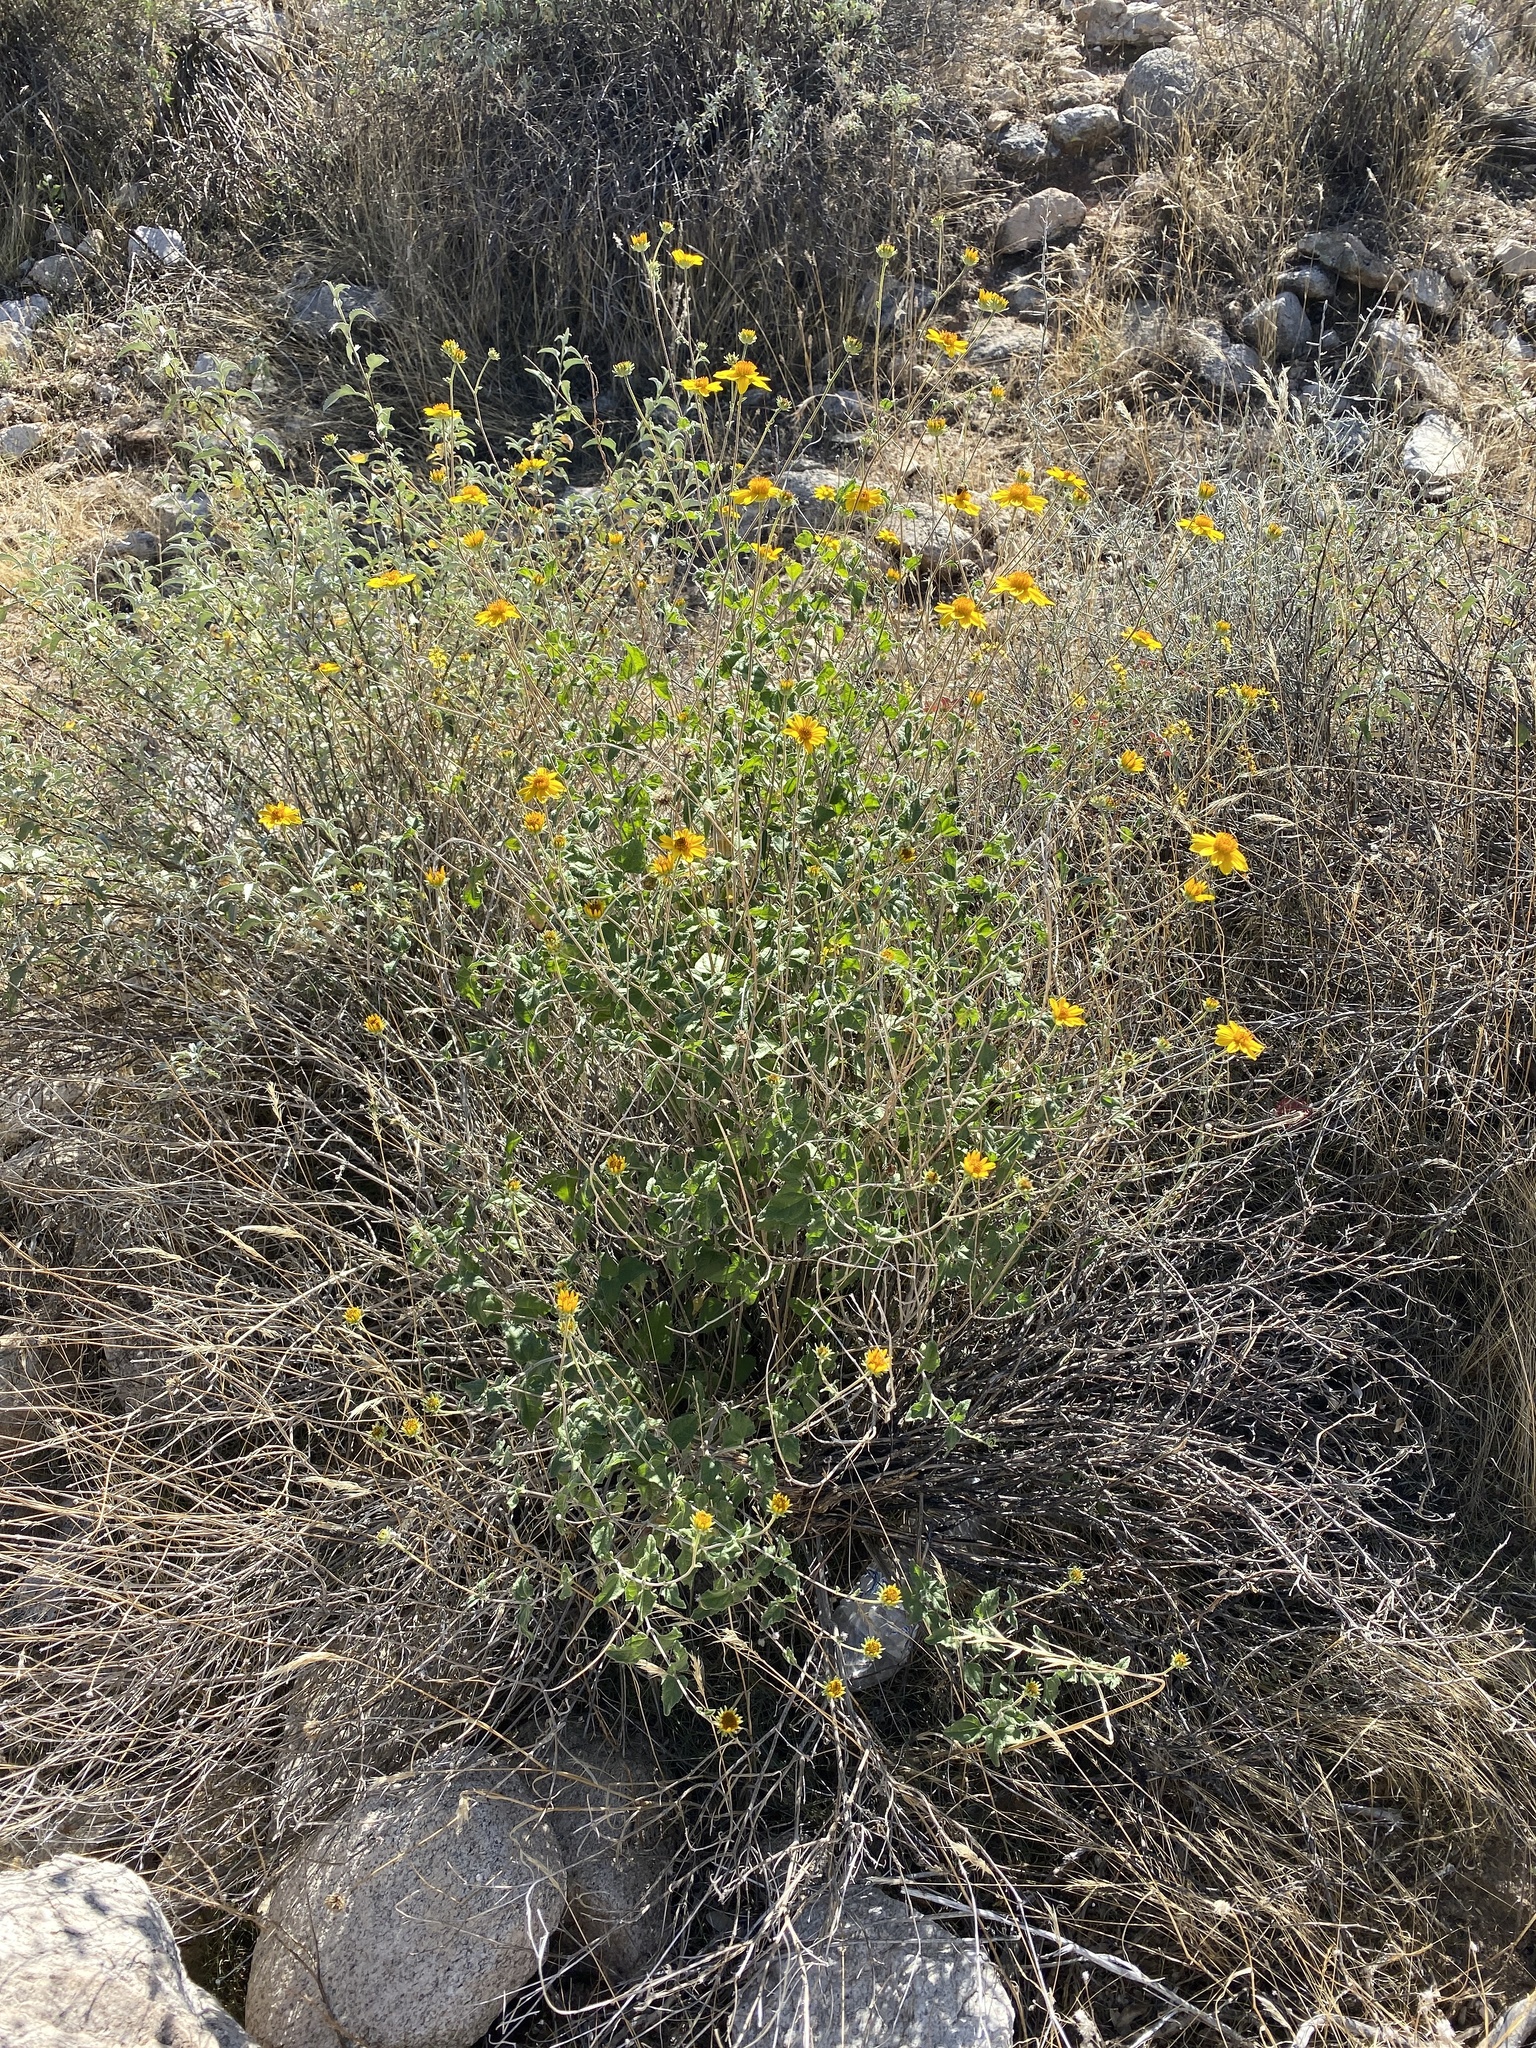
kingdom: Plantae
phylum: Tracheophyta
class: Magnoliopsida
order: Asterales
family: Asteraceae
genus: Bahiopsis
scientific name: Bahiopsis parishii
